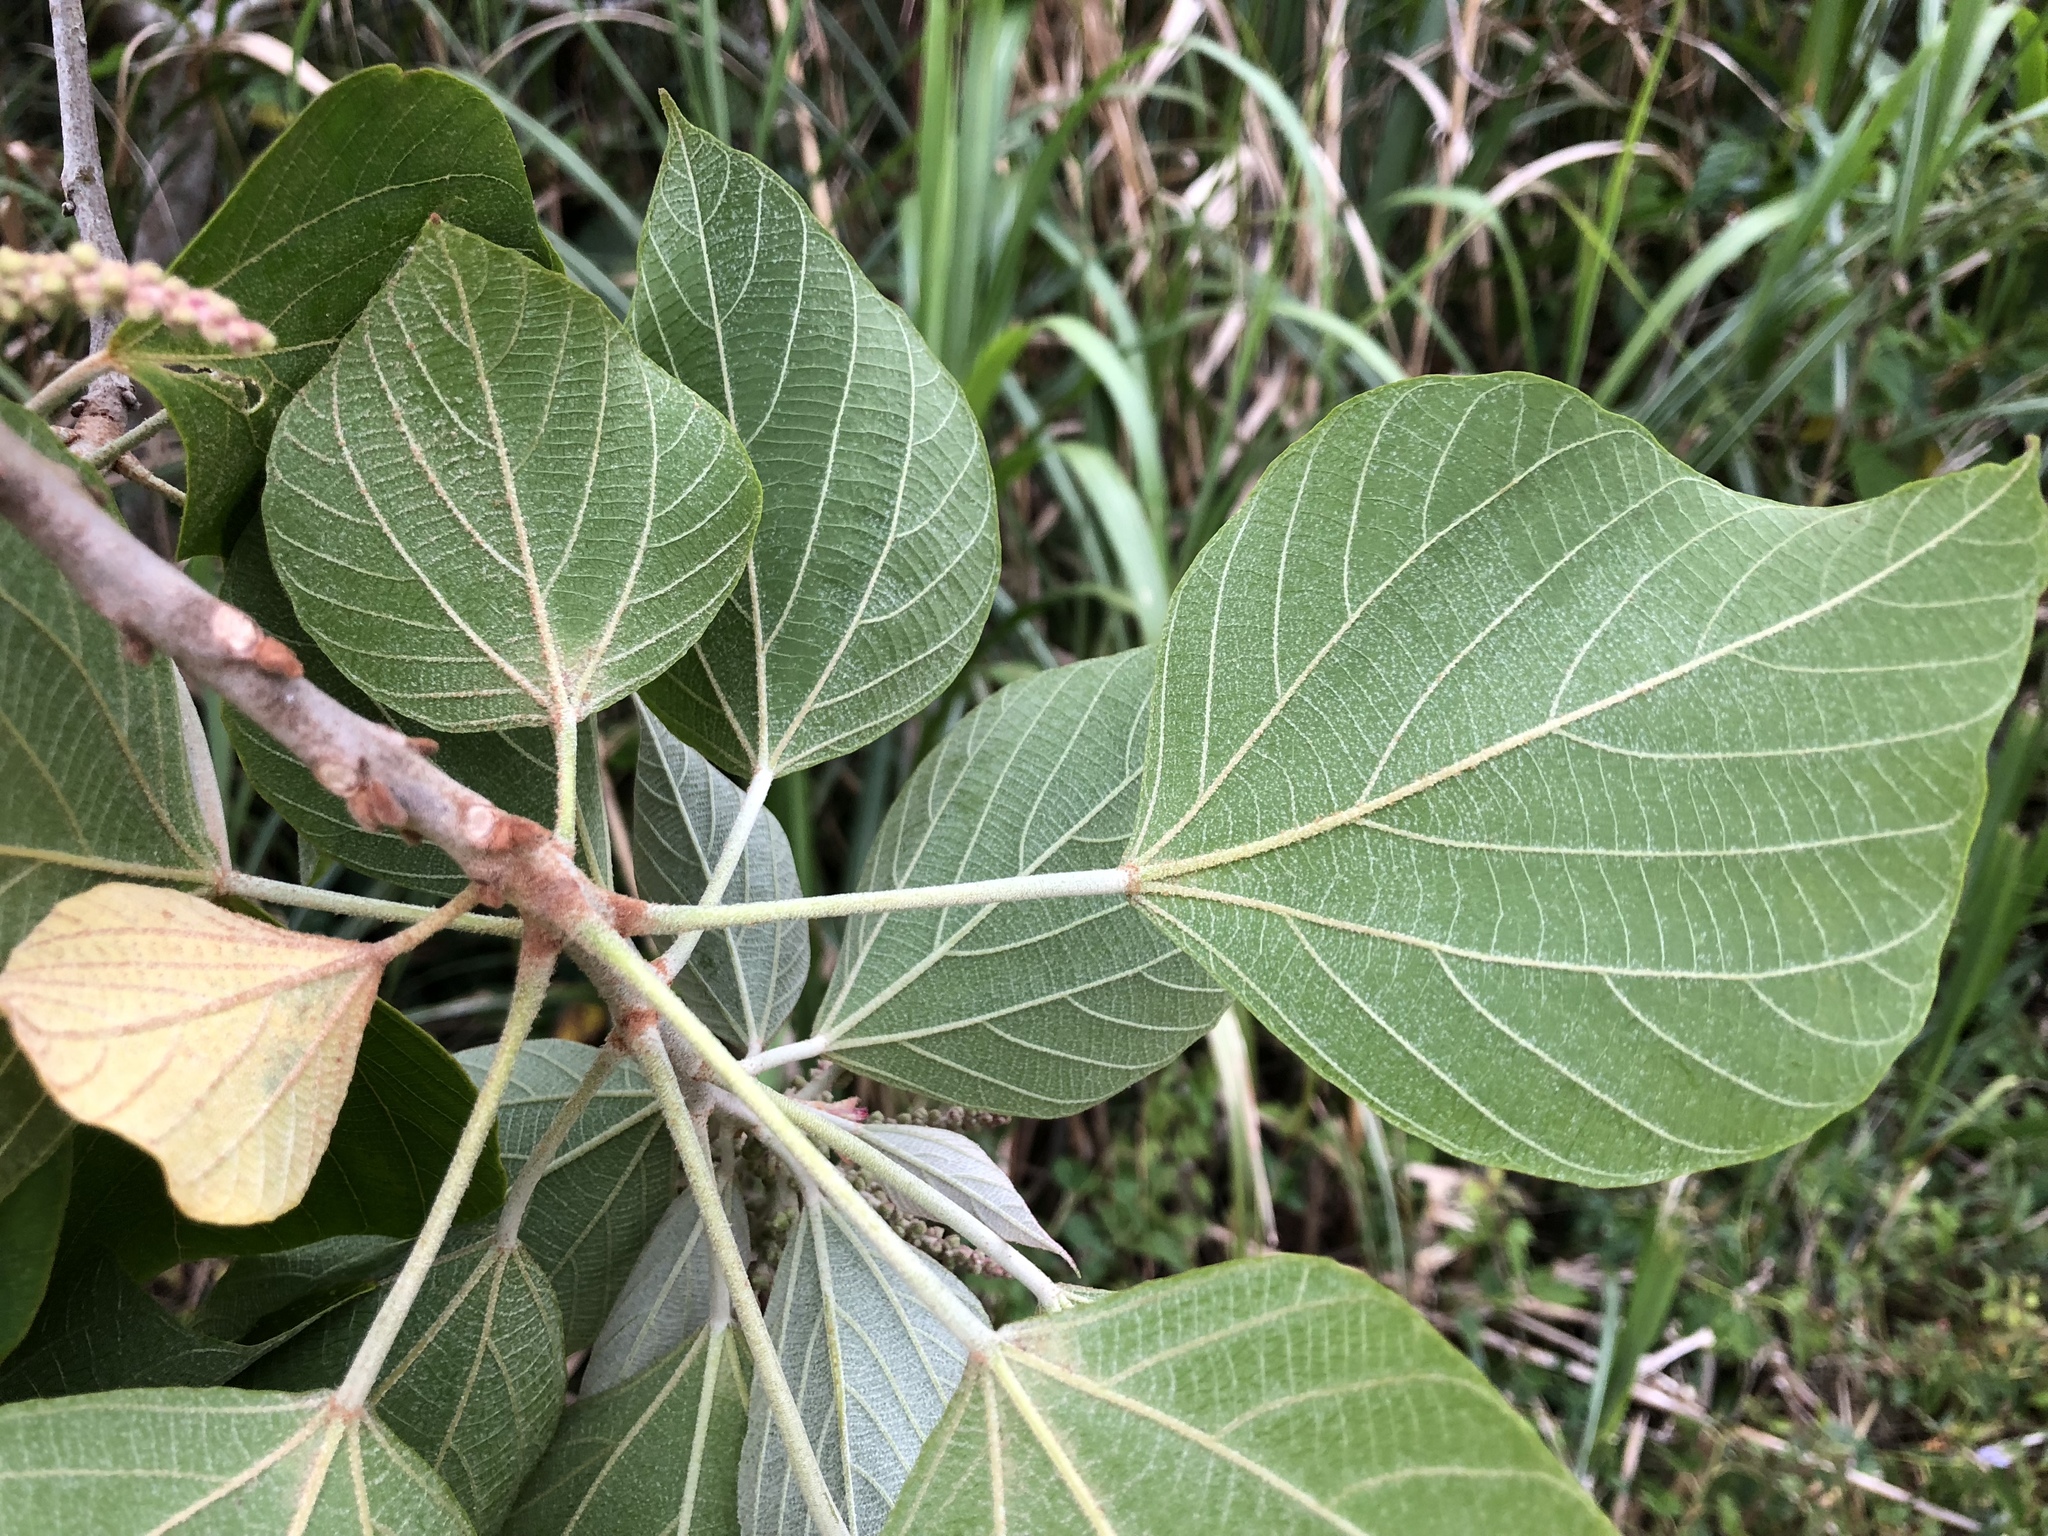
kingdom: Plantae
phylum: Tracheophyta
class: Magnoliopsida
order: Malpighiales
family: Euphorbiaceae
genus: Mallotus
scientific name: Mallotus japonicus
